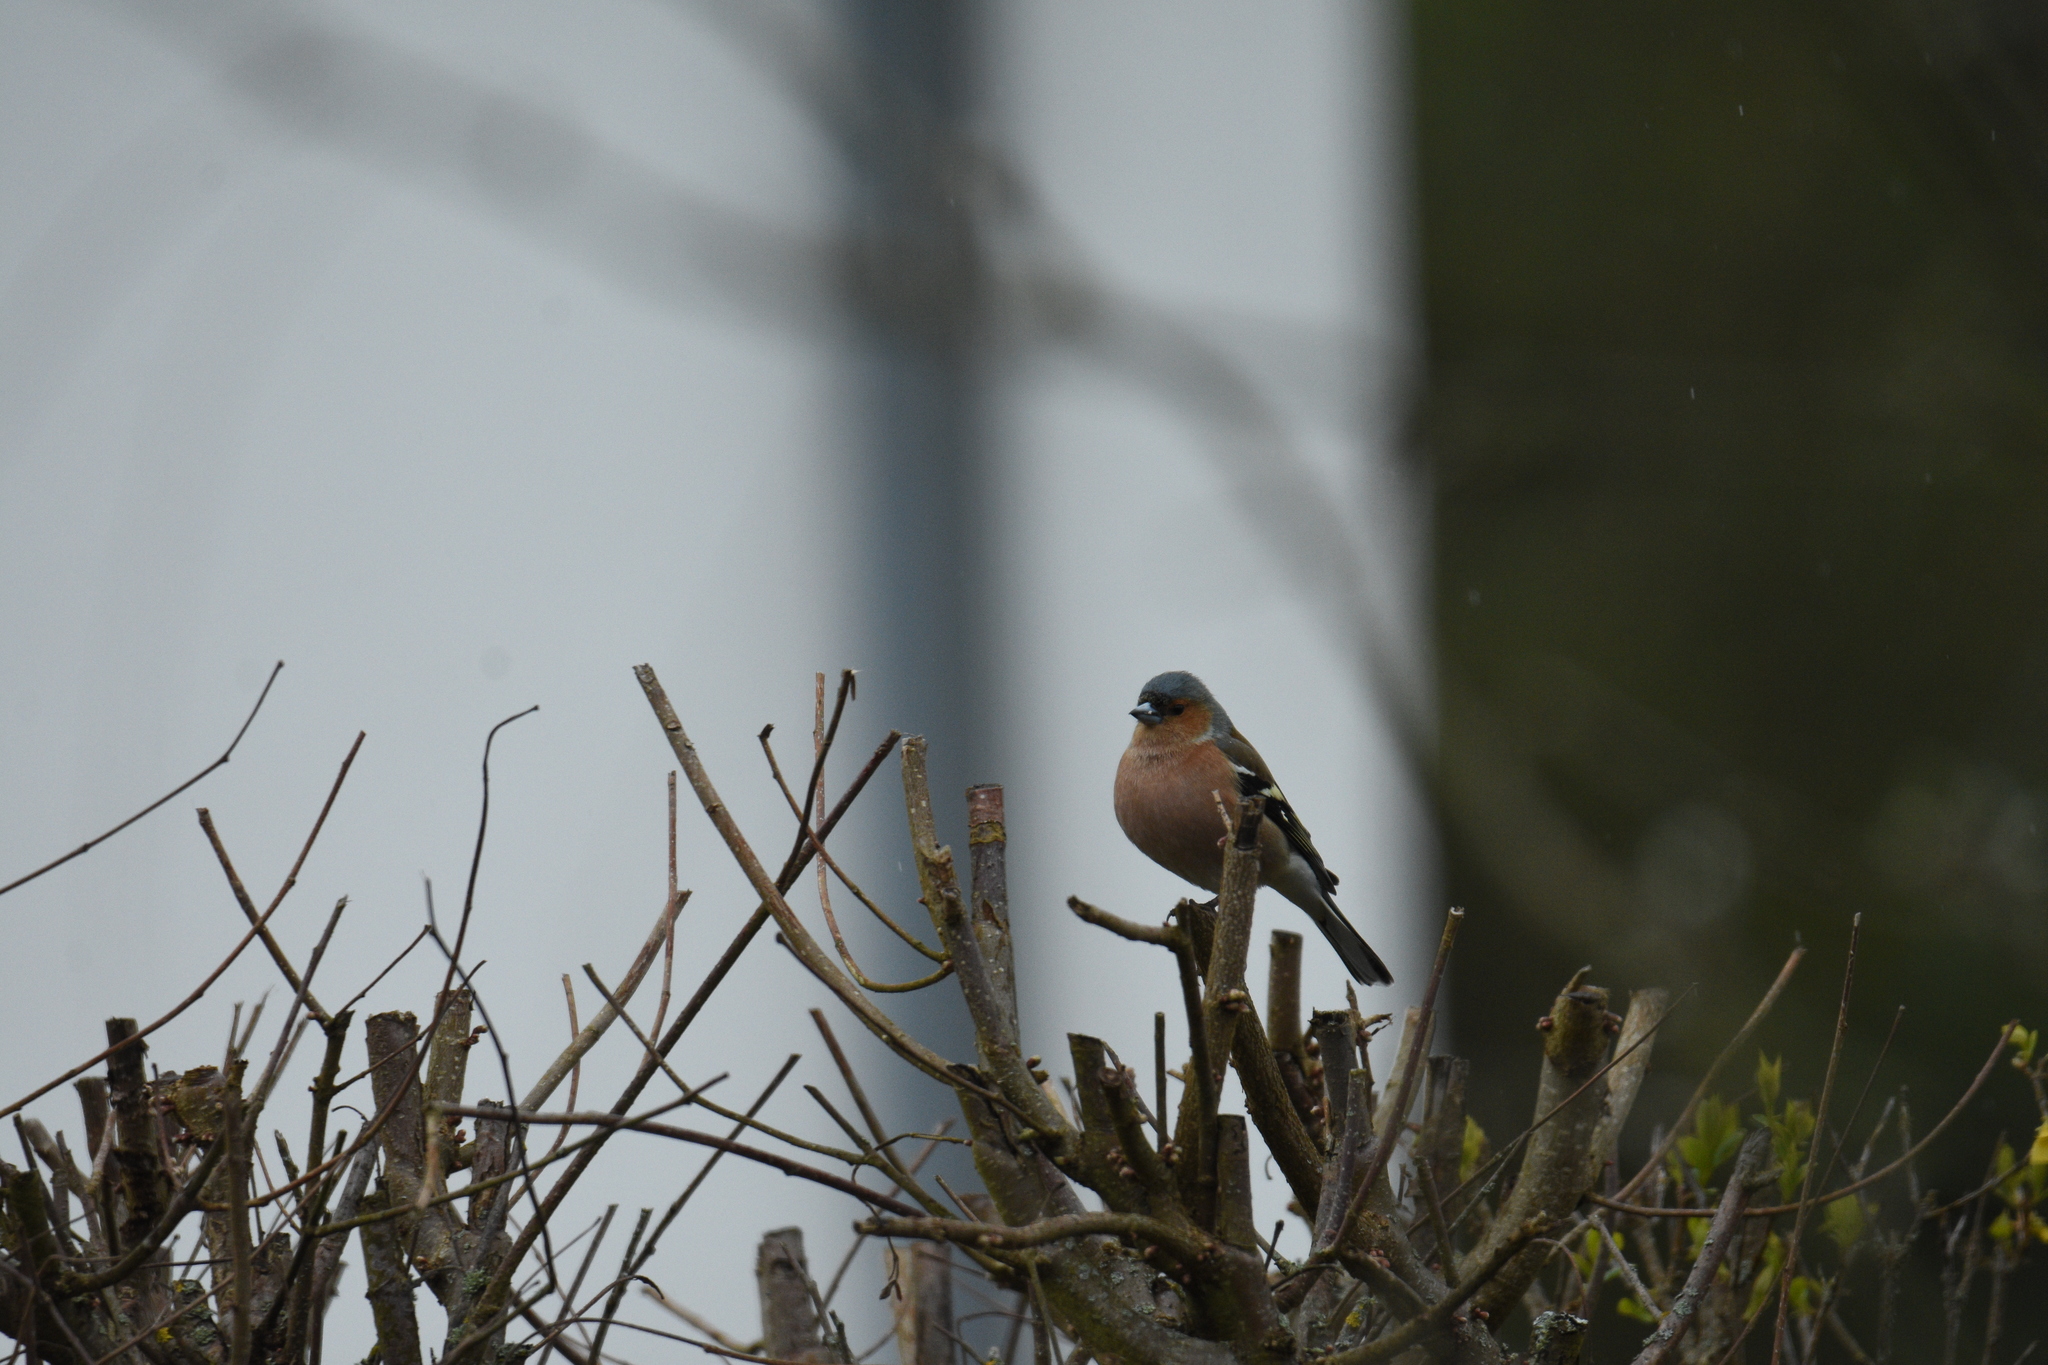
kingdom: Animalia
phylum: Chordata
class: Aves
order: Passeriformes
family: Fringillidae
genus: Fringilla
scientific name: Fringilla coelebs
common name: Common chaffinch
